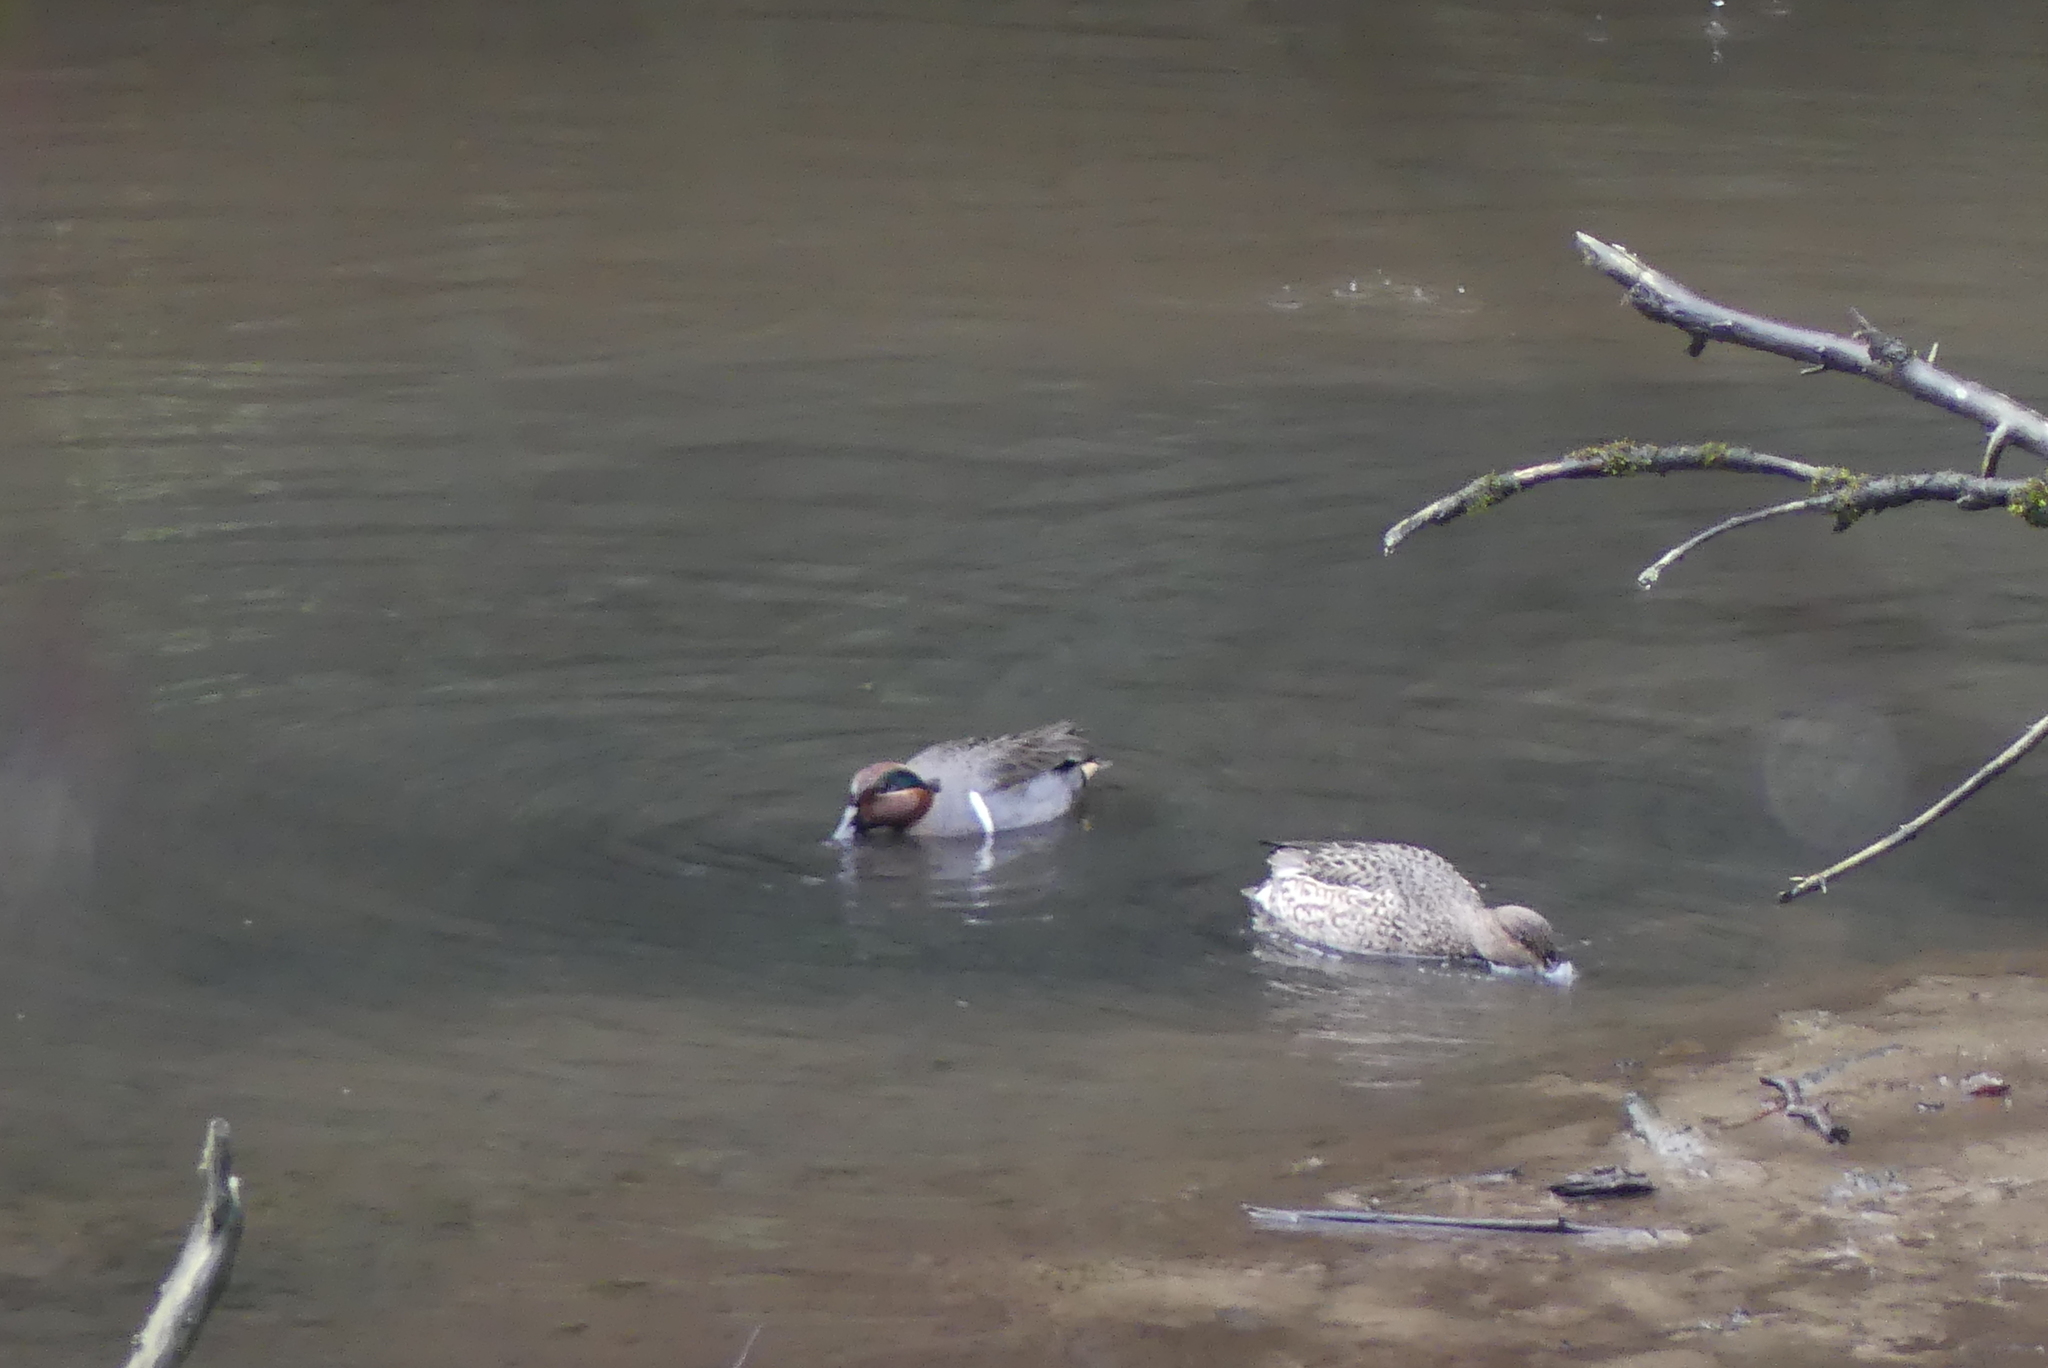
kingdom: Animalia
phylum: Chordata
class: Aves
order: Anseriformes
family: Anatidae
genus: Anas
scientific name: Anas crecca
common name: Eurasian teal
